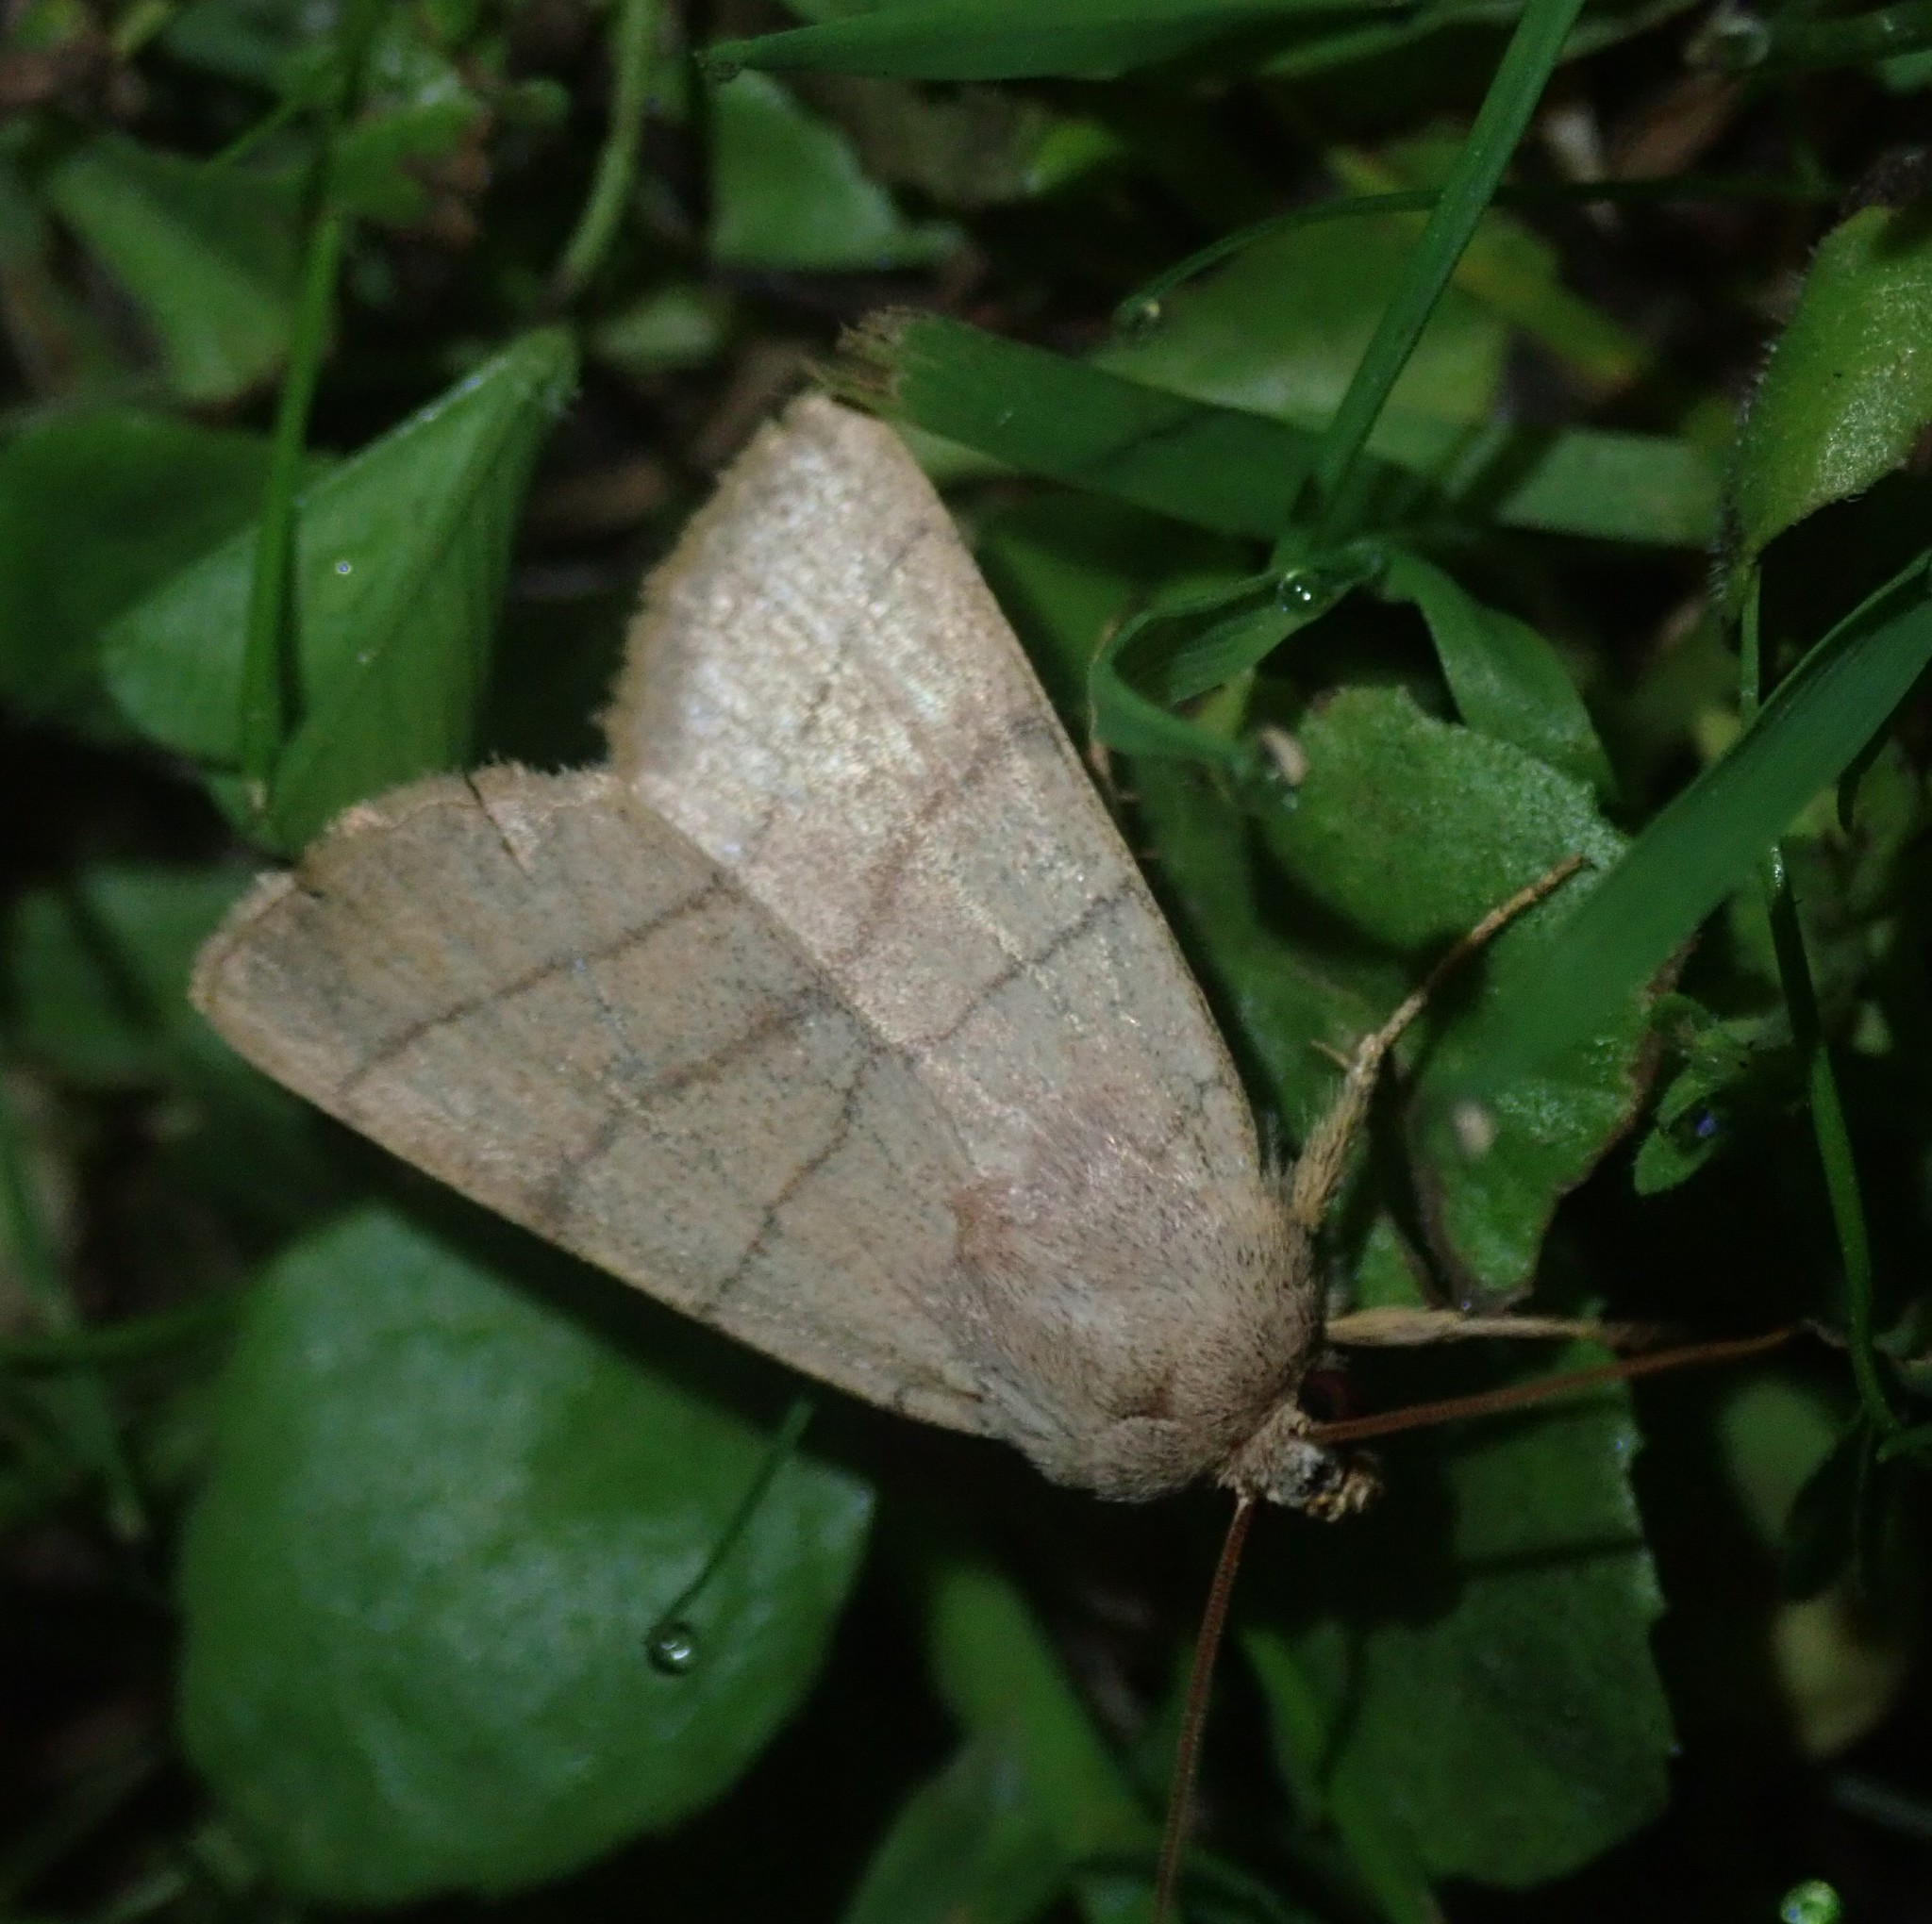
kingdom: Animalia
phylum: Arthropoda
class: Insecta
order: Lepidoptera
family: Noctuidae
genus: Charanyca
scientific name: Charanyca trigrammica
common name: Treble lines
